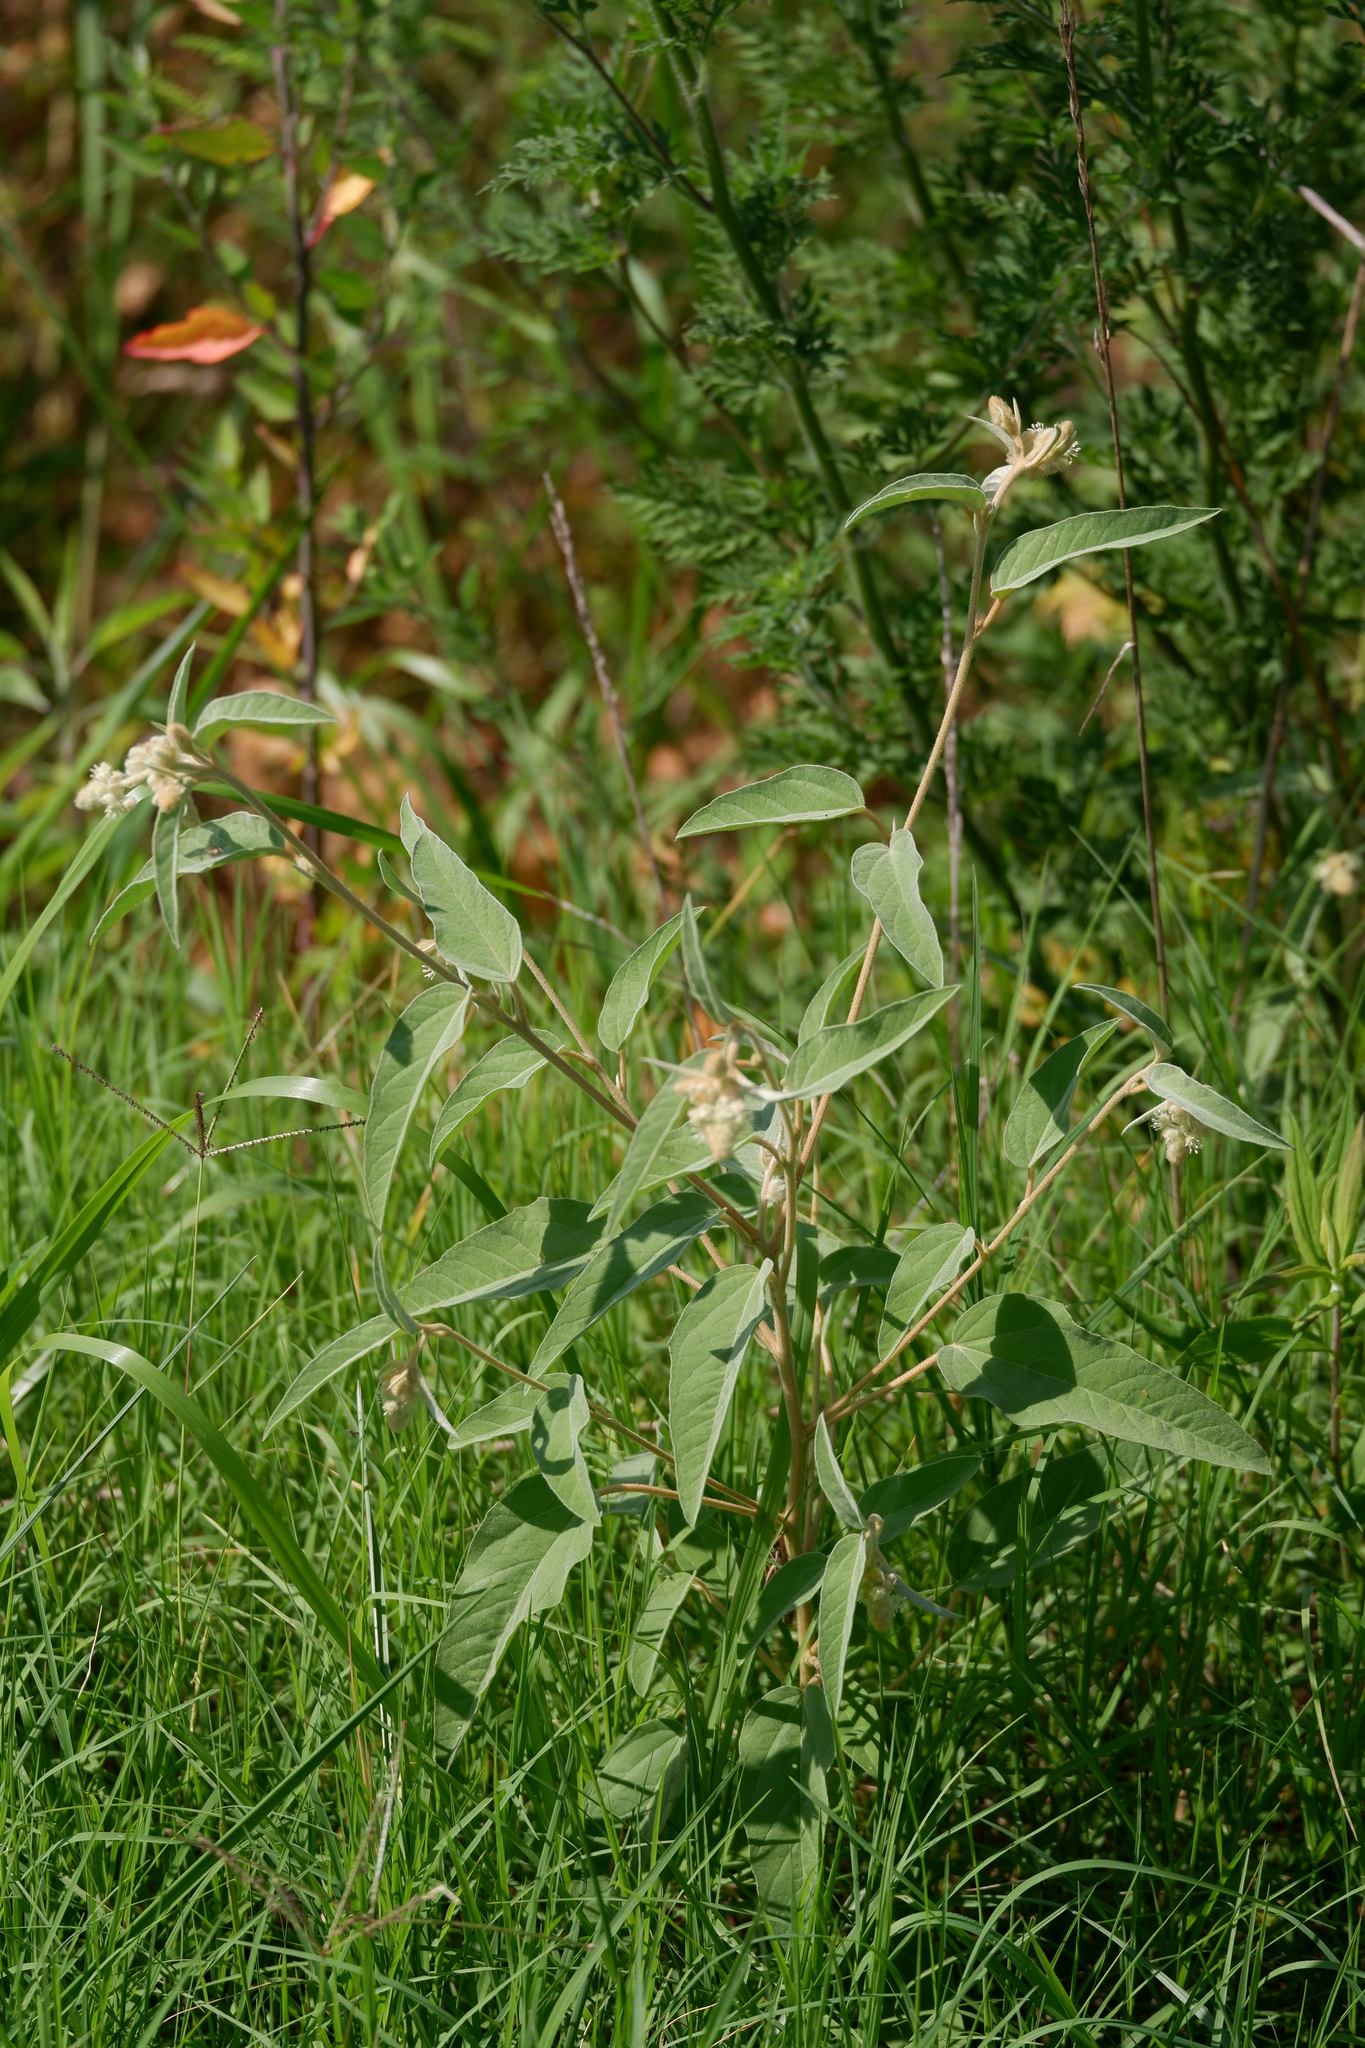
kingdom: Plantae
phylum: Tracheophyta
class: Magnoliopsida
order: Malpighiales
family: Euphorbiaceae
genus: Croton
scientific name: Croton lindheimeri
